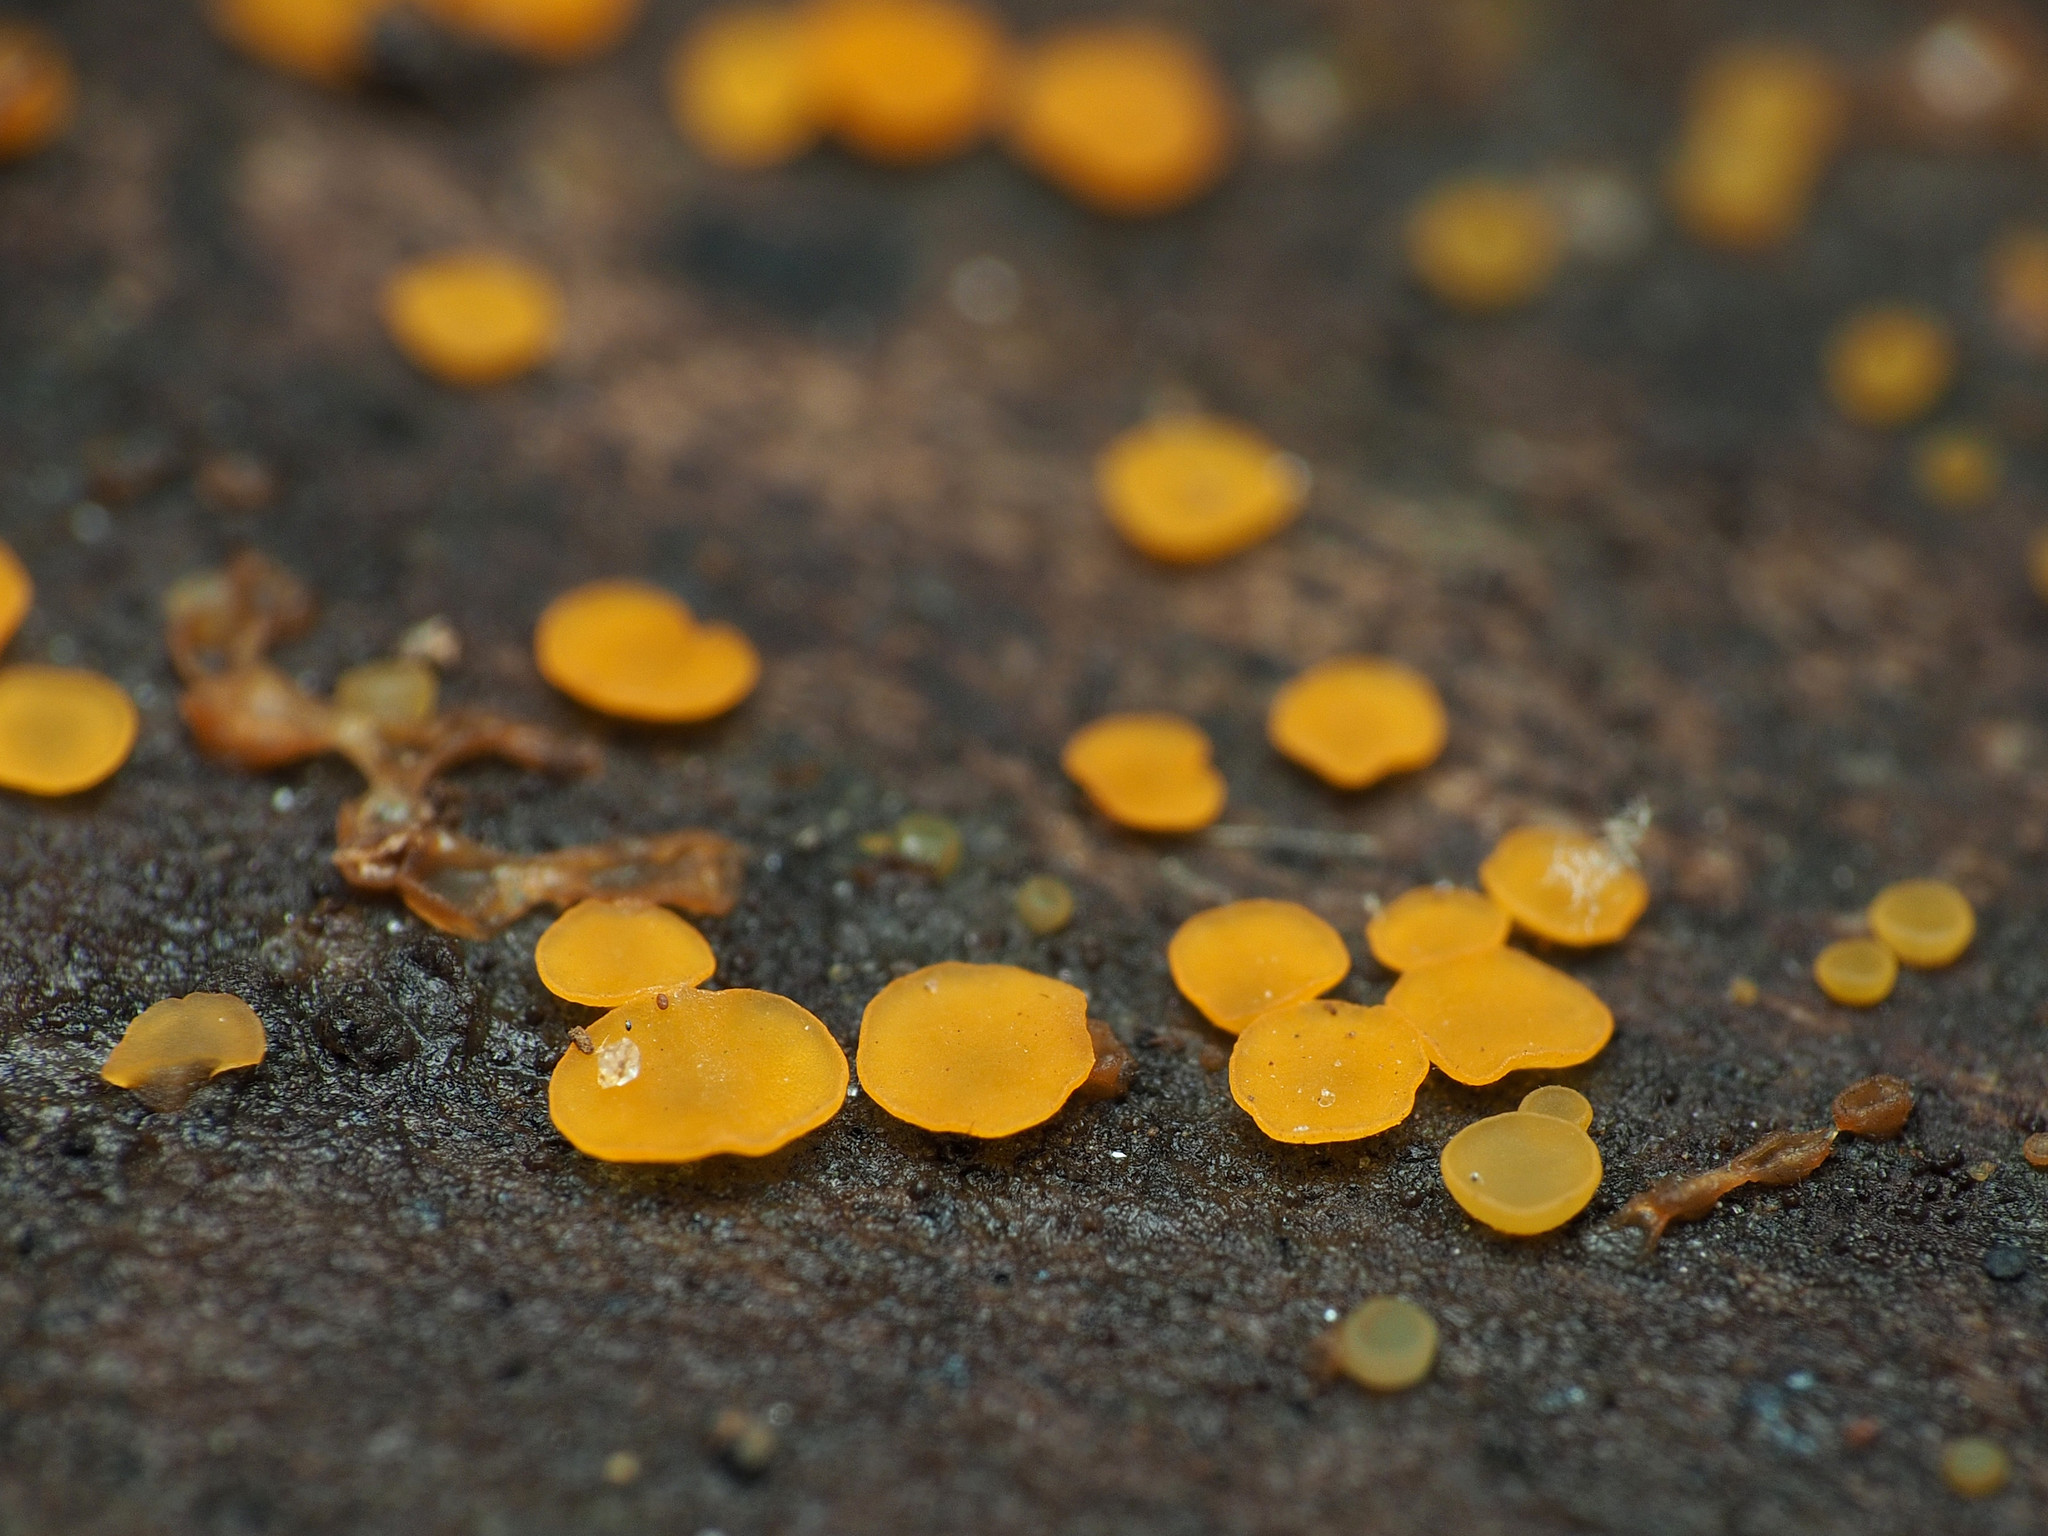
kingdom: Fungi
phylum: Ascomycota
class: Orbiliomycetes
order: Orbiliales
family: Orbiliaceae
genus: Orbilia
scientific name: Orbilia
